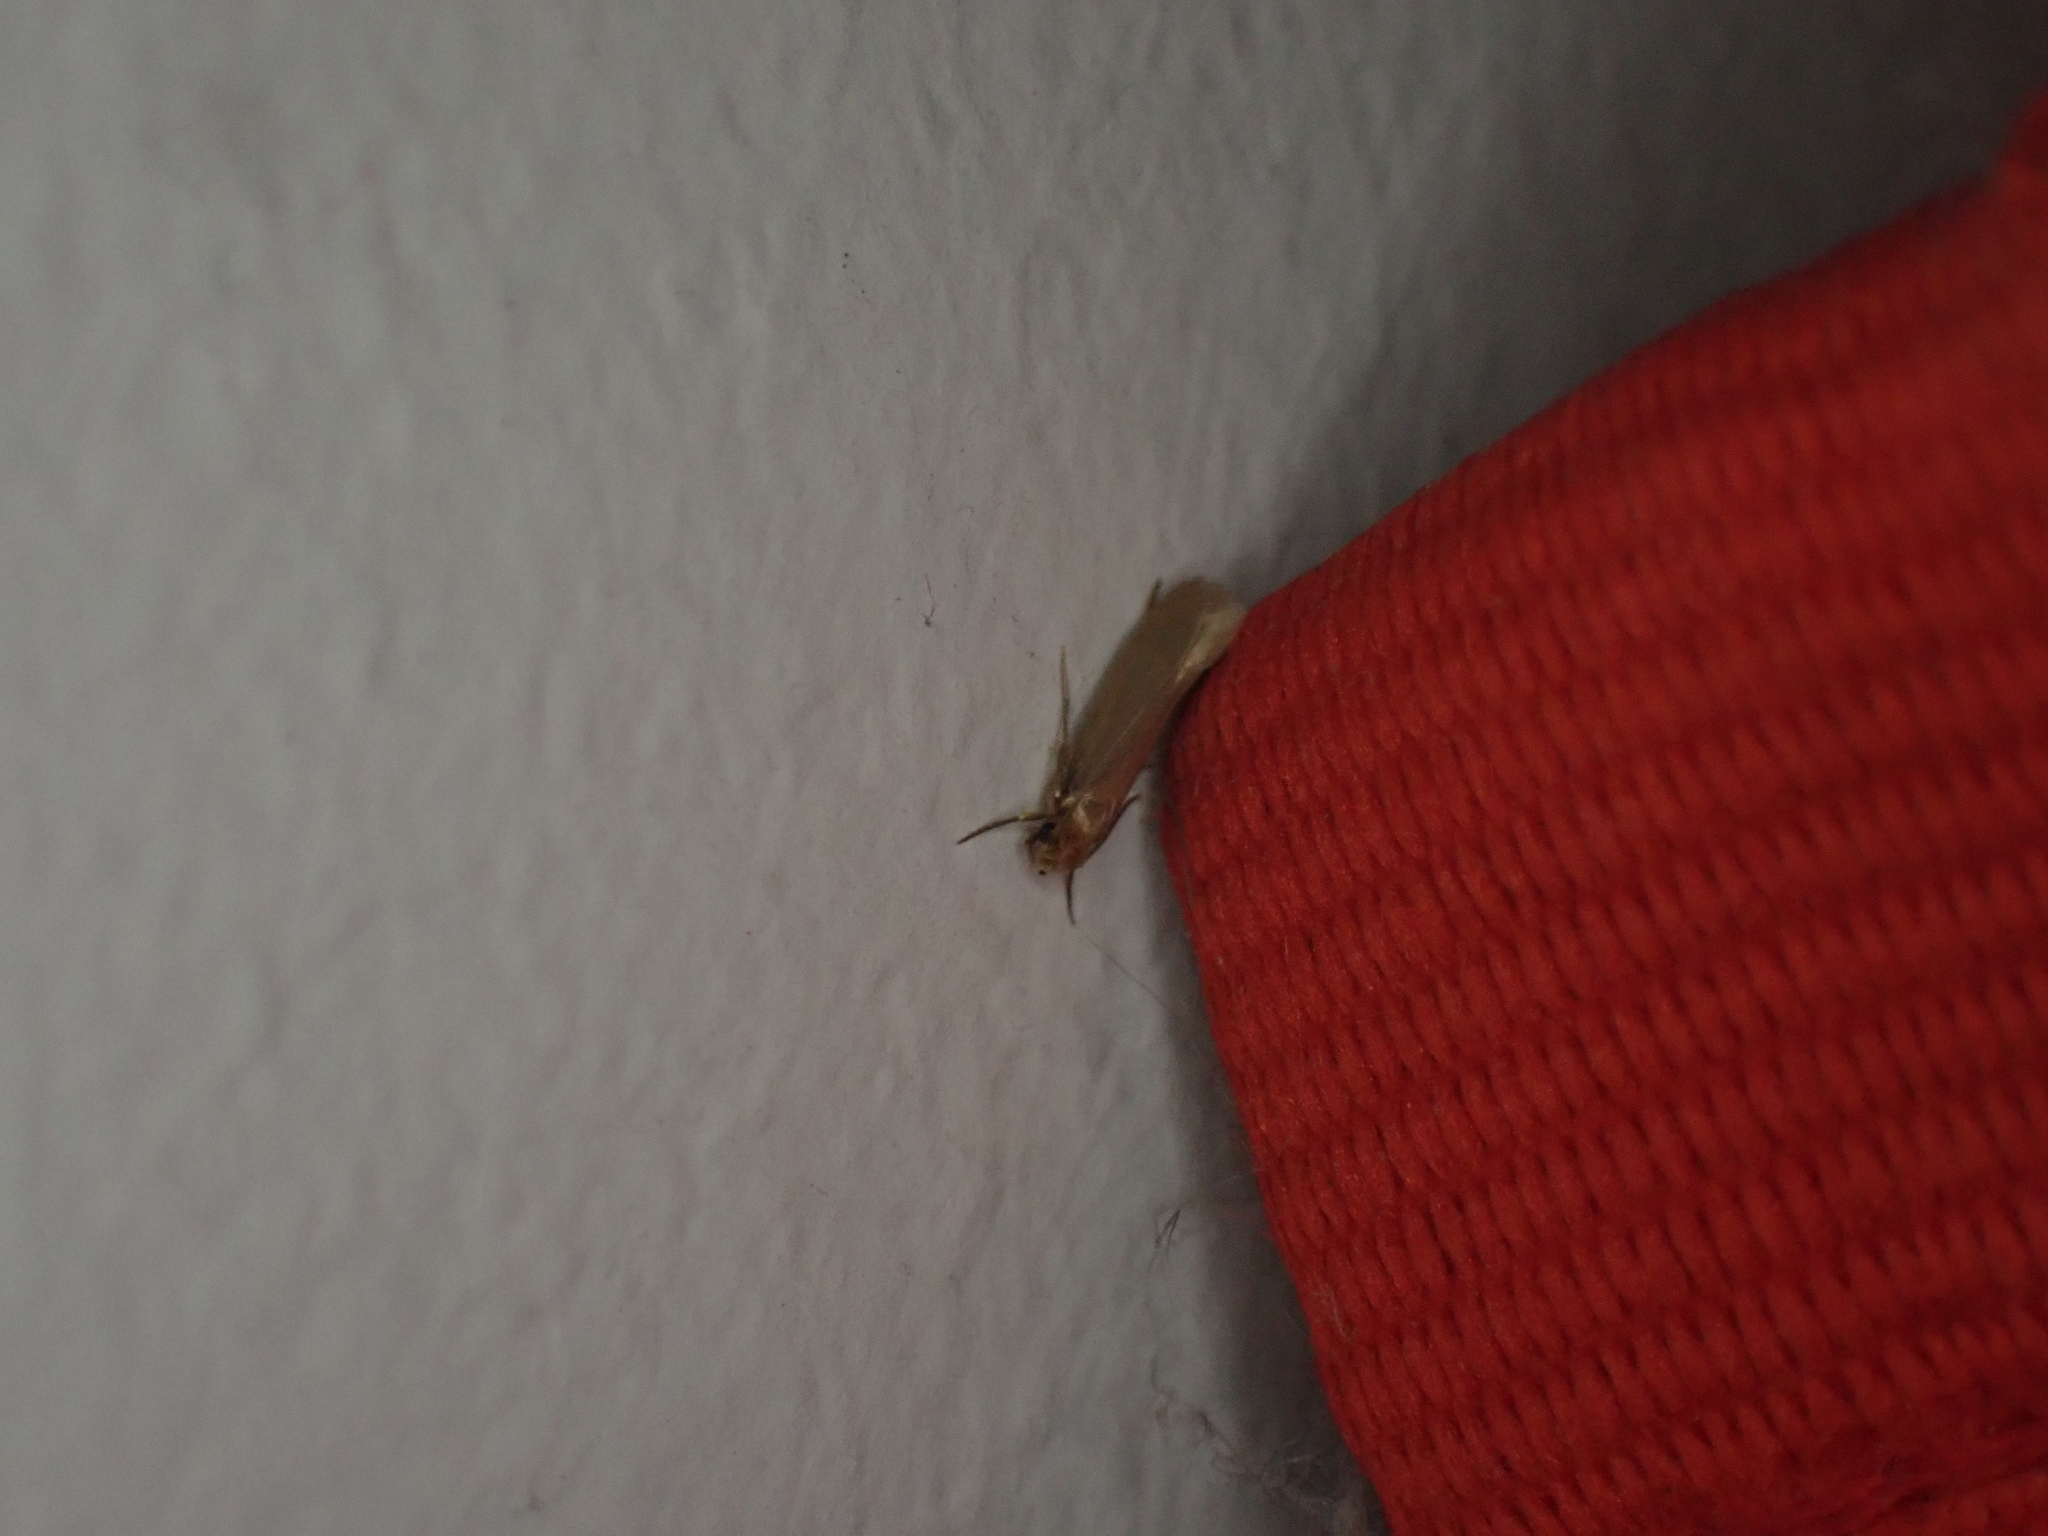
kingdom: Animalia
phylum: Arthropoda
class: Insecta
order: Lepidoptera
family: Tineidae
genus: Tineola
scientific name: Tineola bisselliella
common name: Webbing clothes moth
